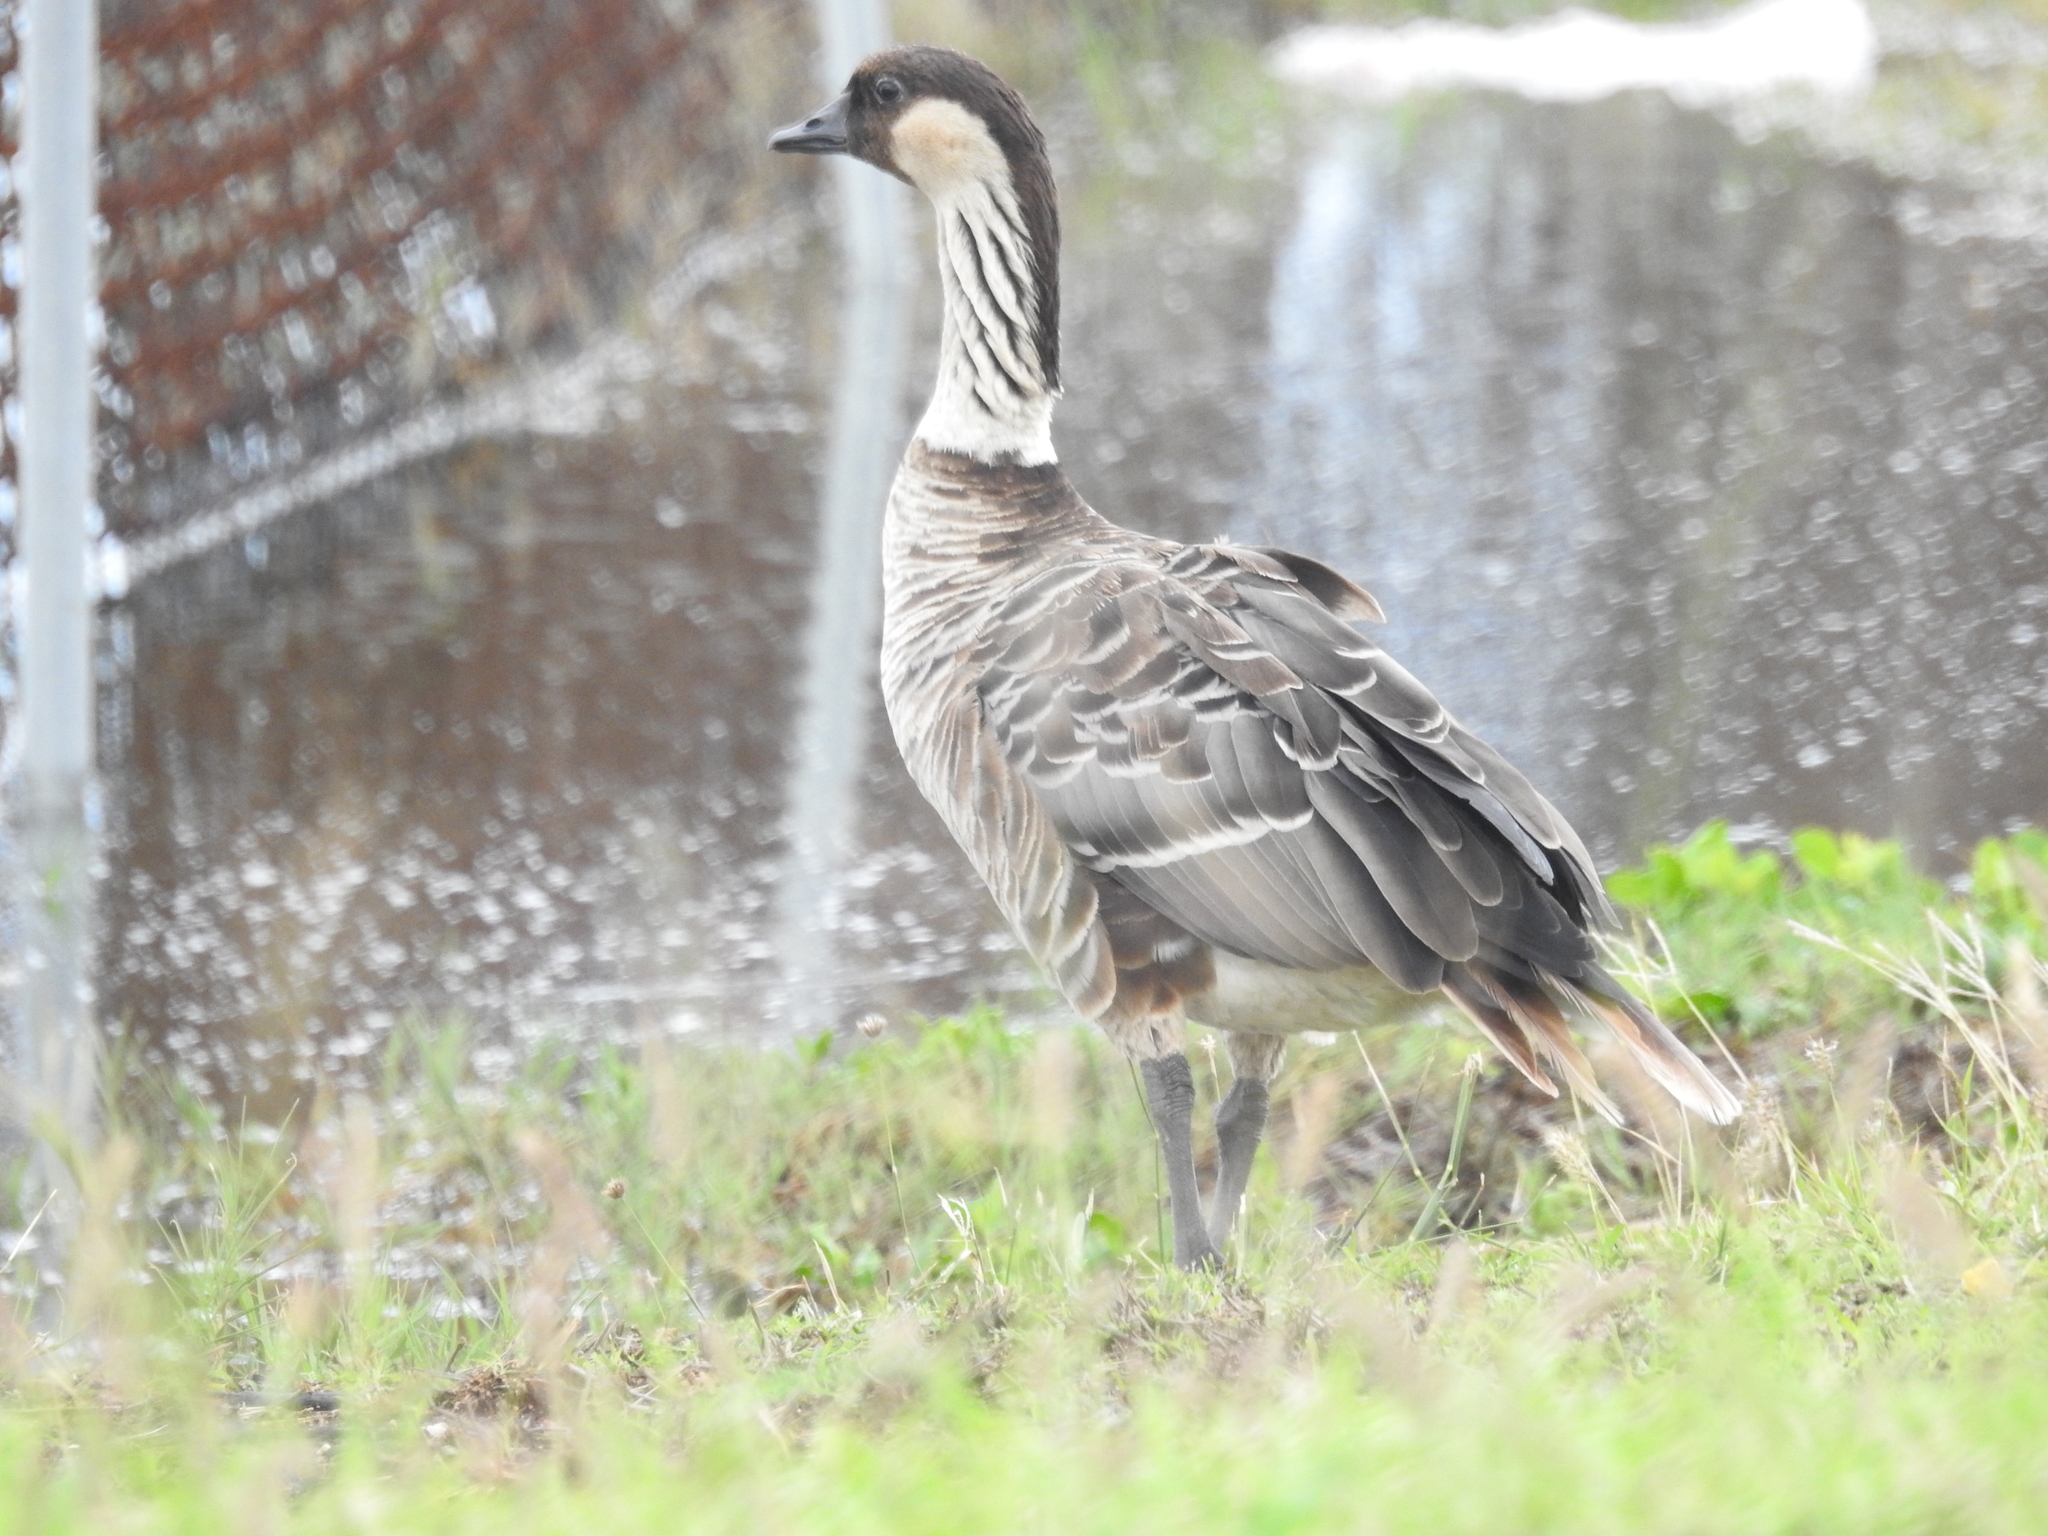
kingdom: Animalia
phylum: Chordata
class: Aves
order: Anseriformes
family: Anatidae
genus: Branta
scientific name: Branta sandvicensis
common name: Nene
